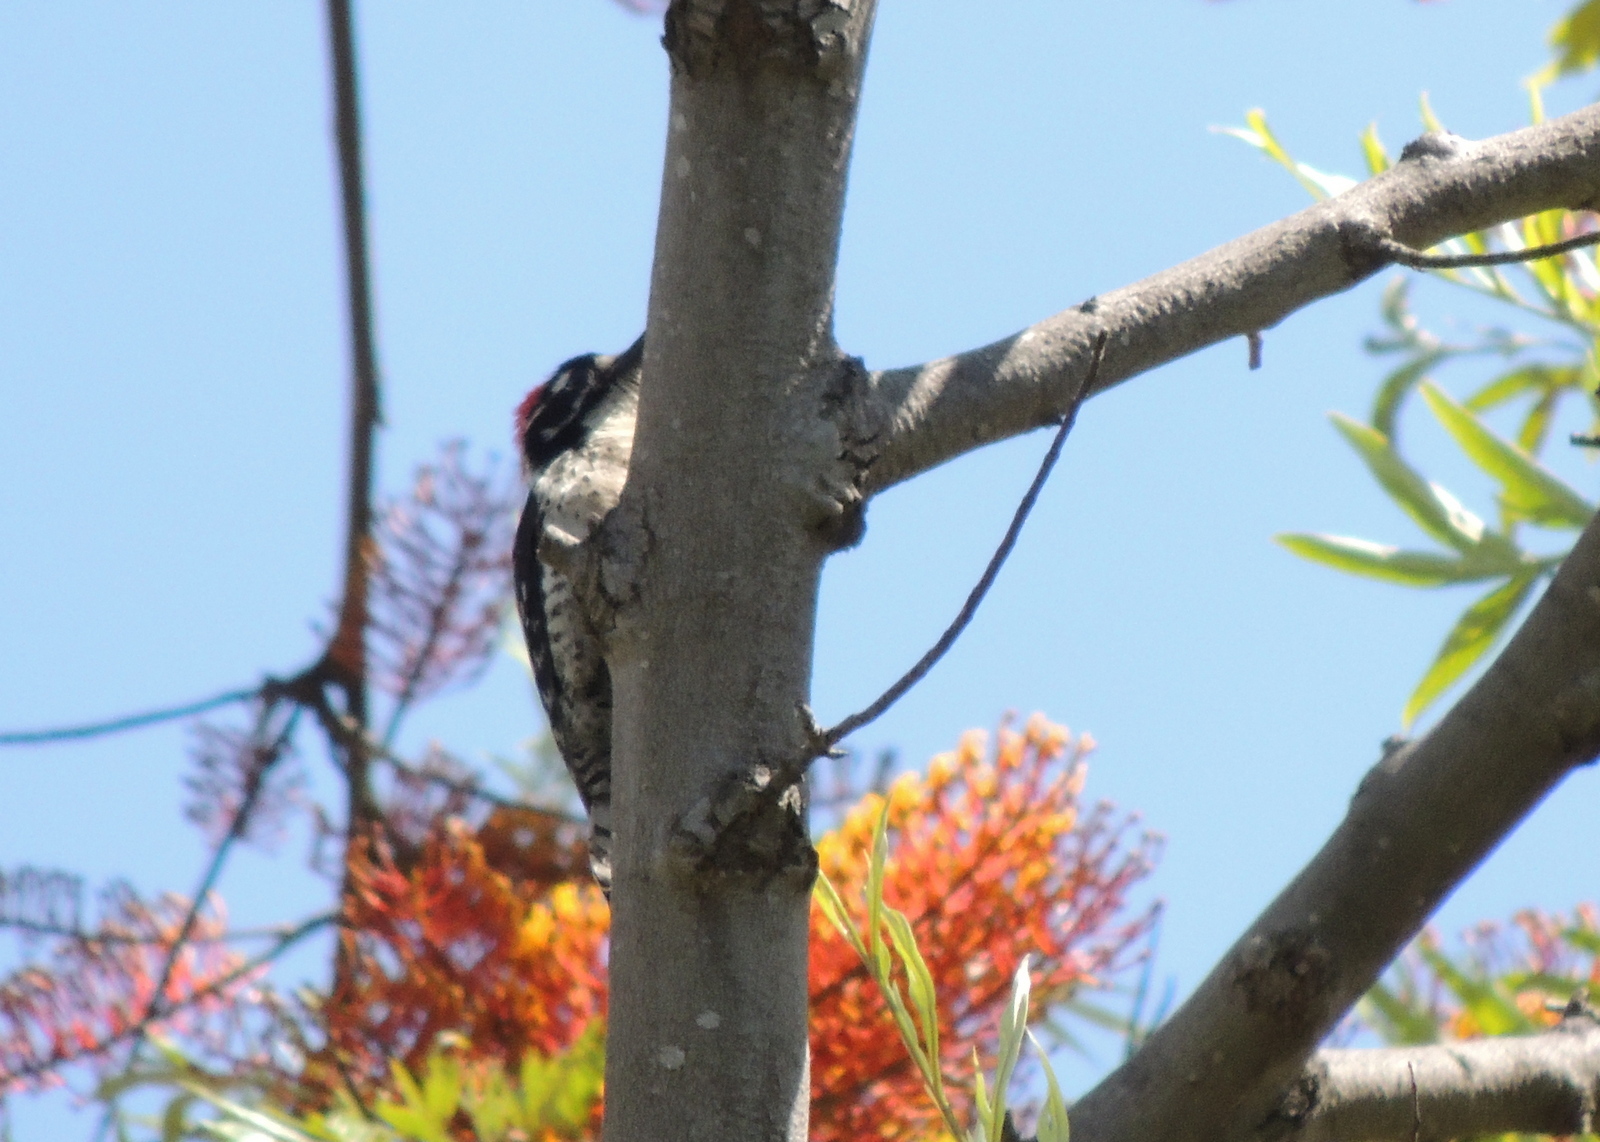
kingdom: Animalia
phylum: Chordata
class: Aves
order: Piciformes
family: Picidae
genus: Dryobates
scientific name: Dryobates nuttallii
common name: Nuttall's woodpecker
